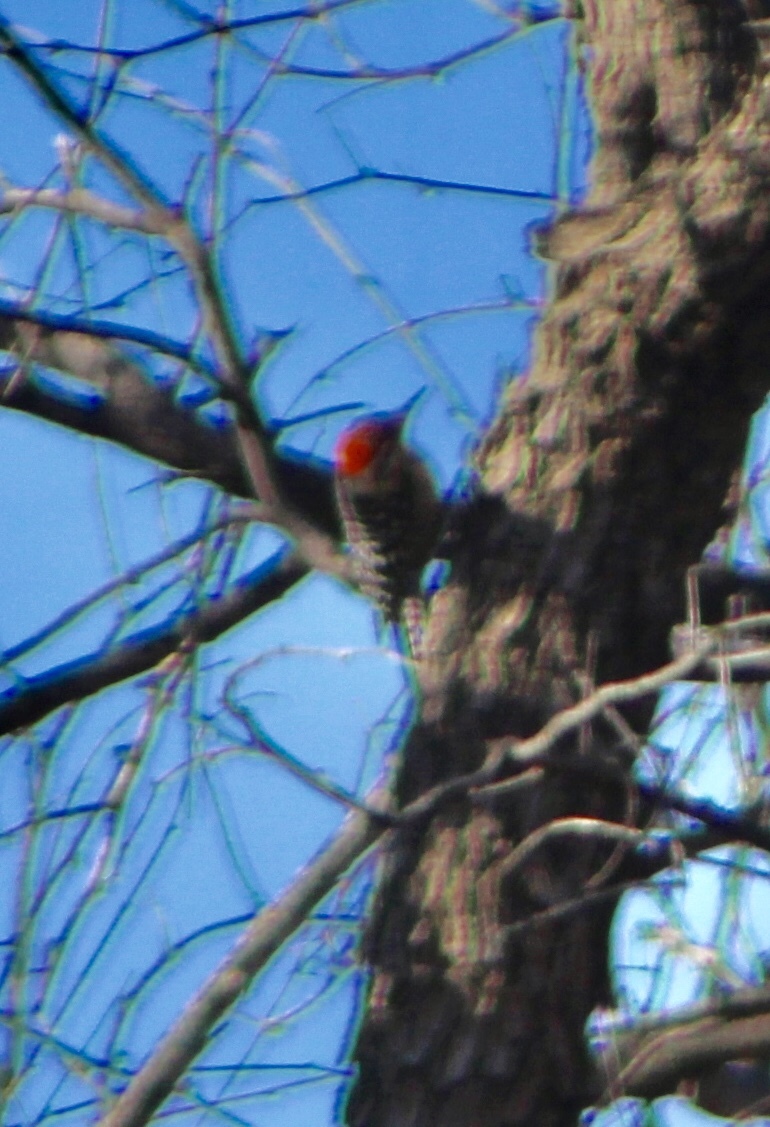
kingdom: Animalia
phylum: Chordata
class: Aves
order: Piciformes
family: Picidae
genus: Dryobates
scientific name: Dryobates scalaris
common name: Ladder-backed woodpecker
